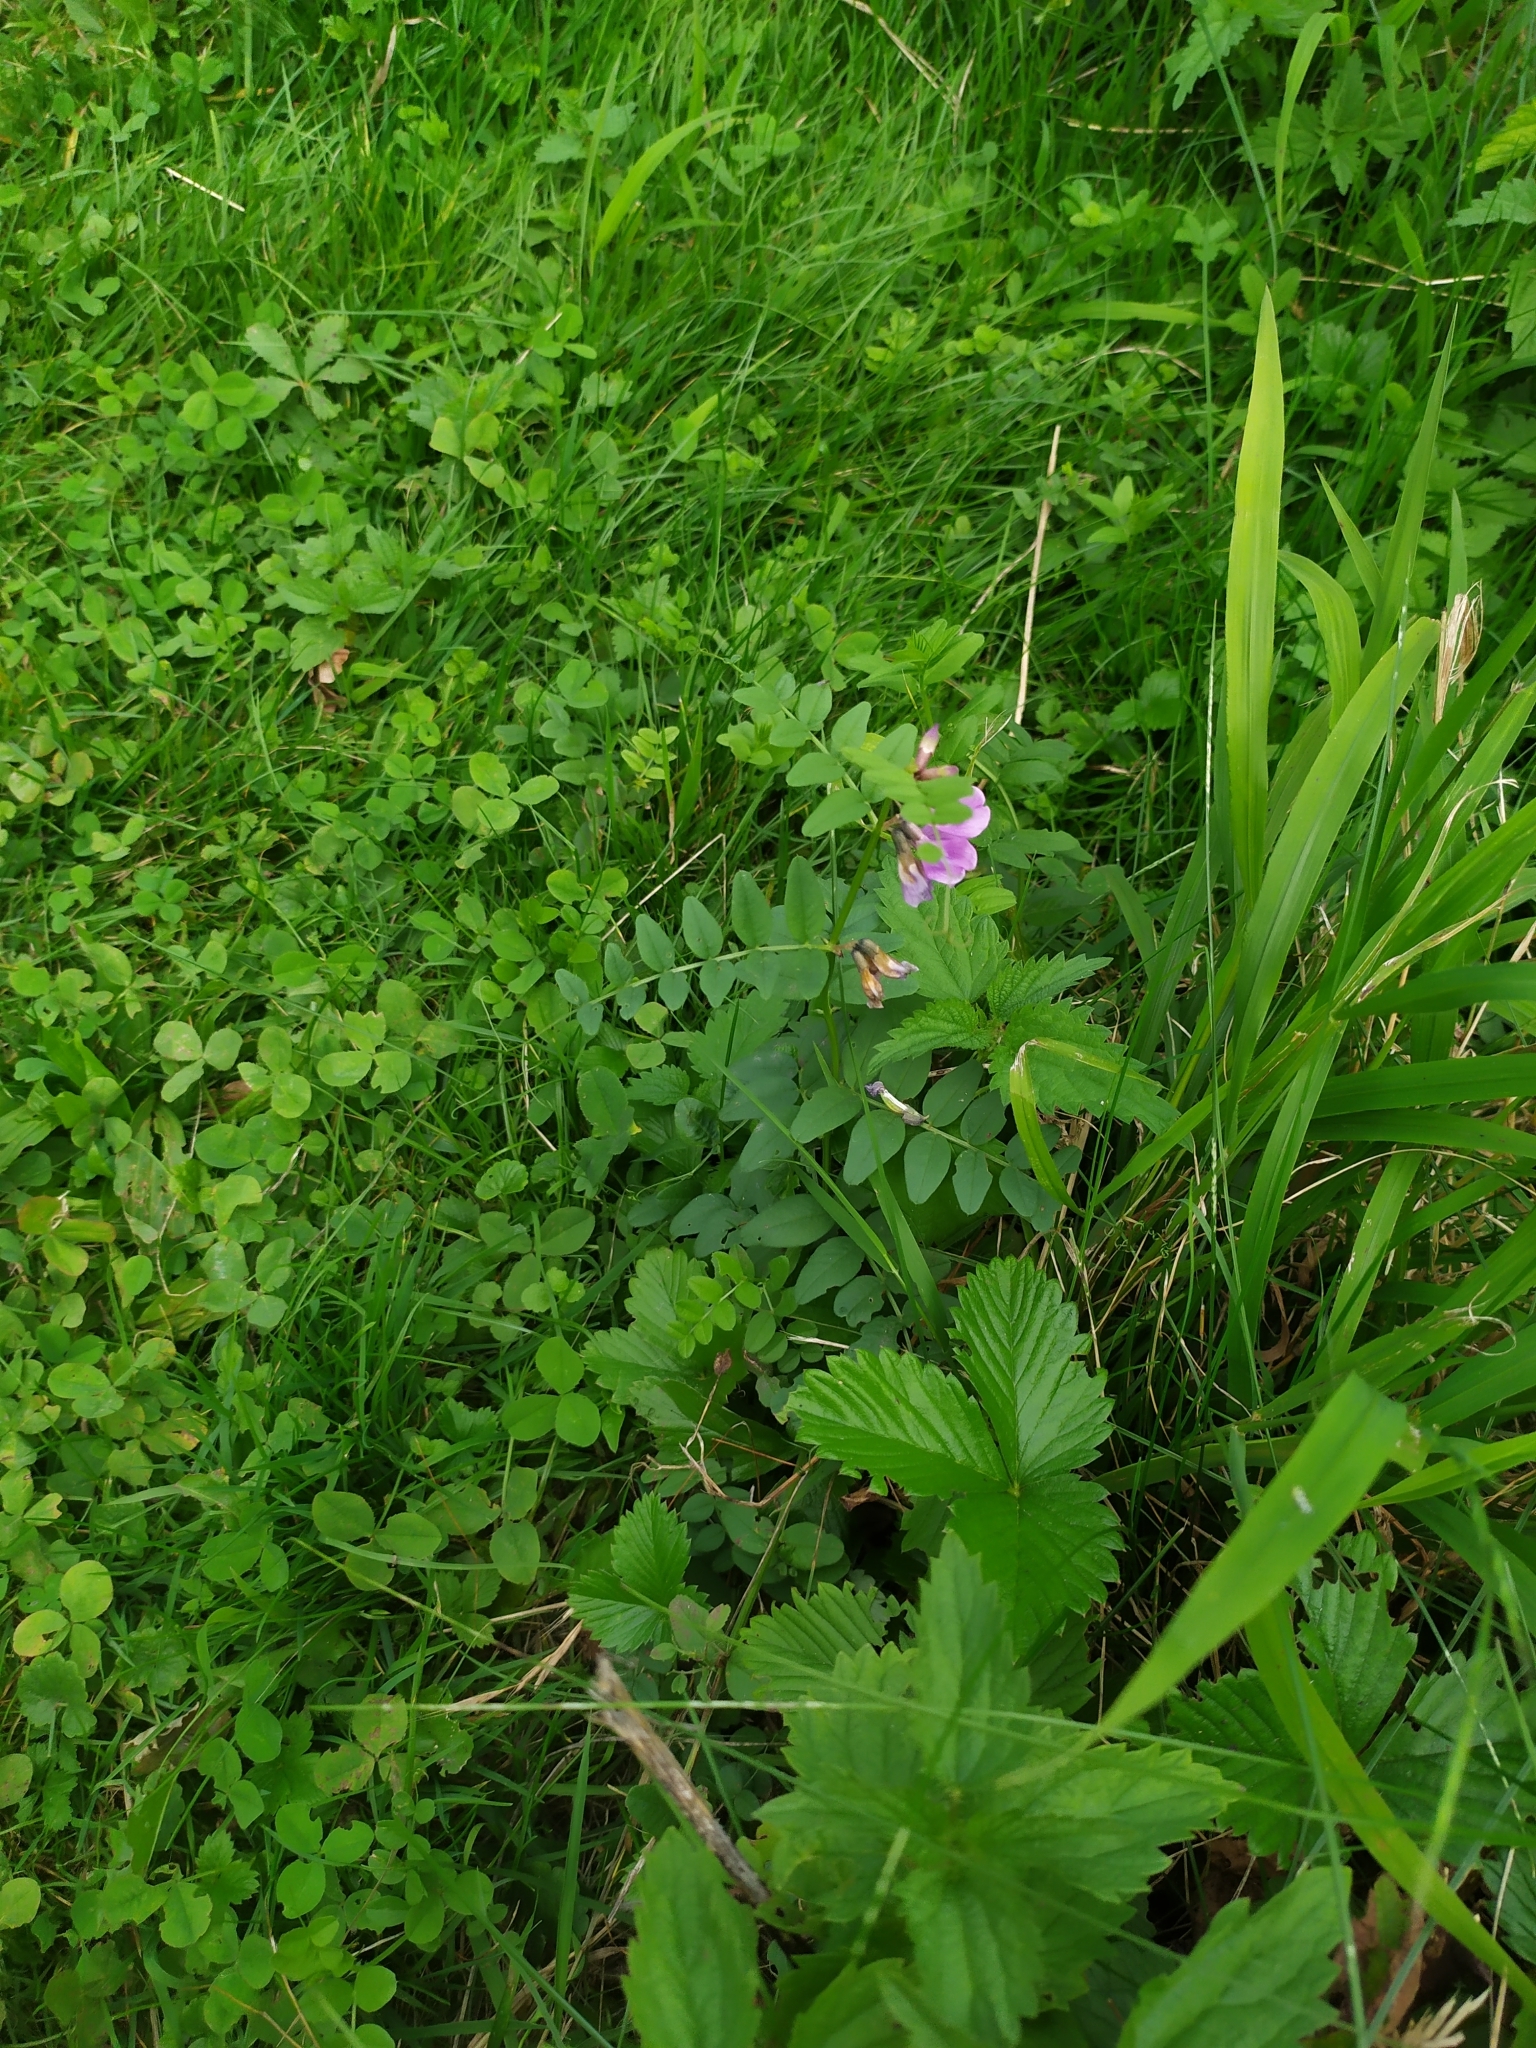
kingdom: Plantae
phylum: Tracheophyta
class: Magnoliopsida
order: Fabales
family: Fabaceae
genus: Vicia
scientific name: Vicia sepium
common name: Bush vetch
